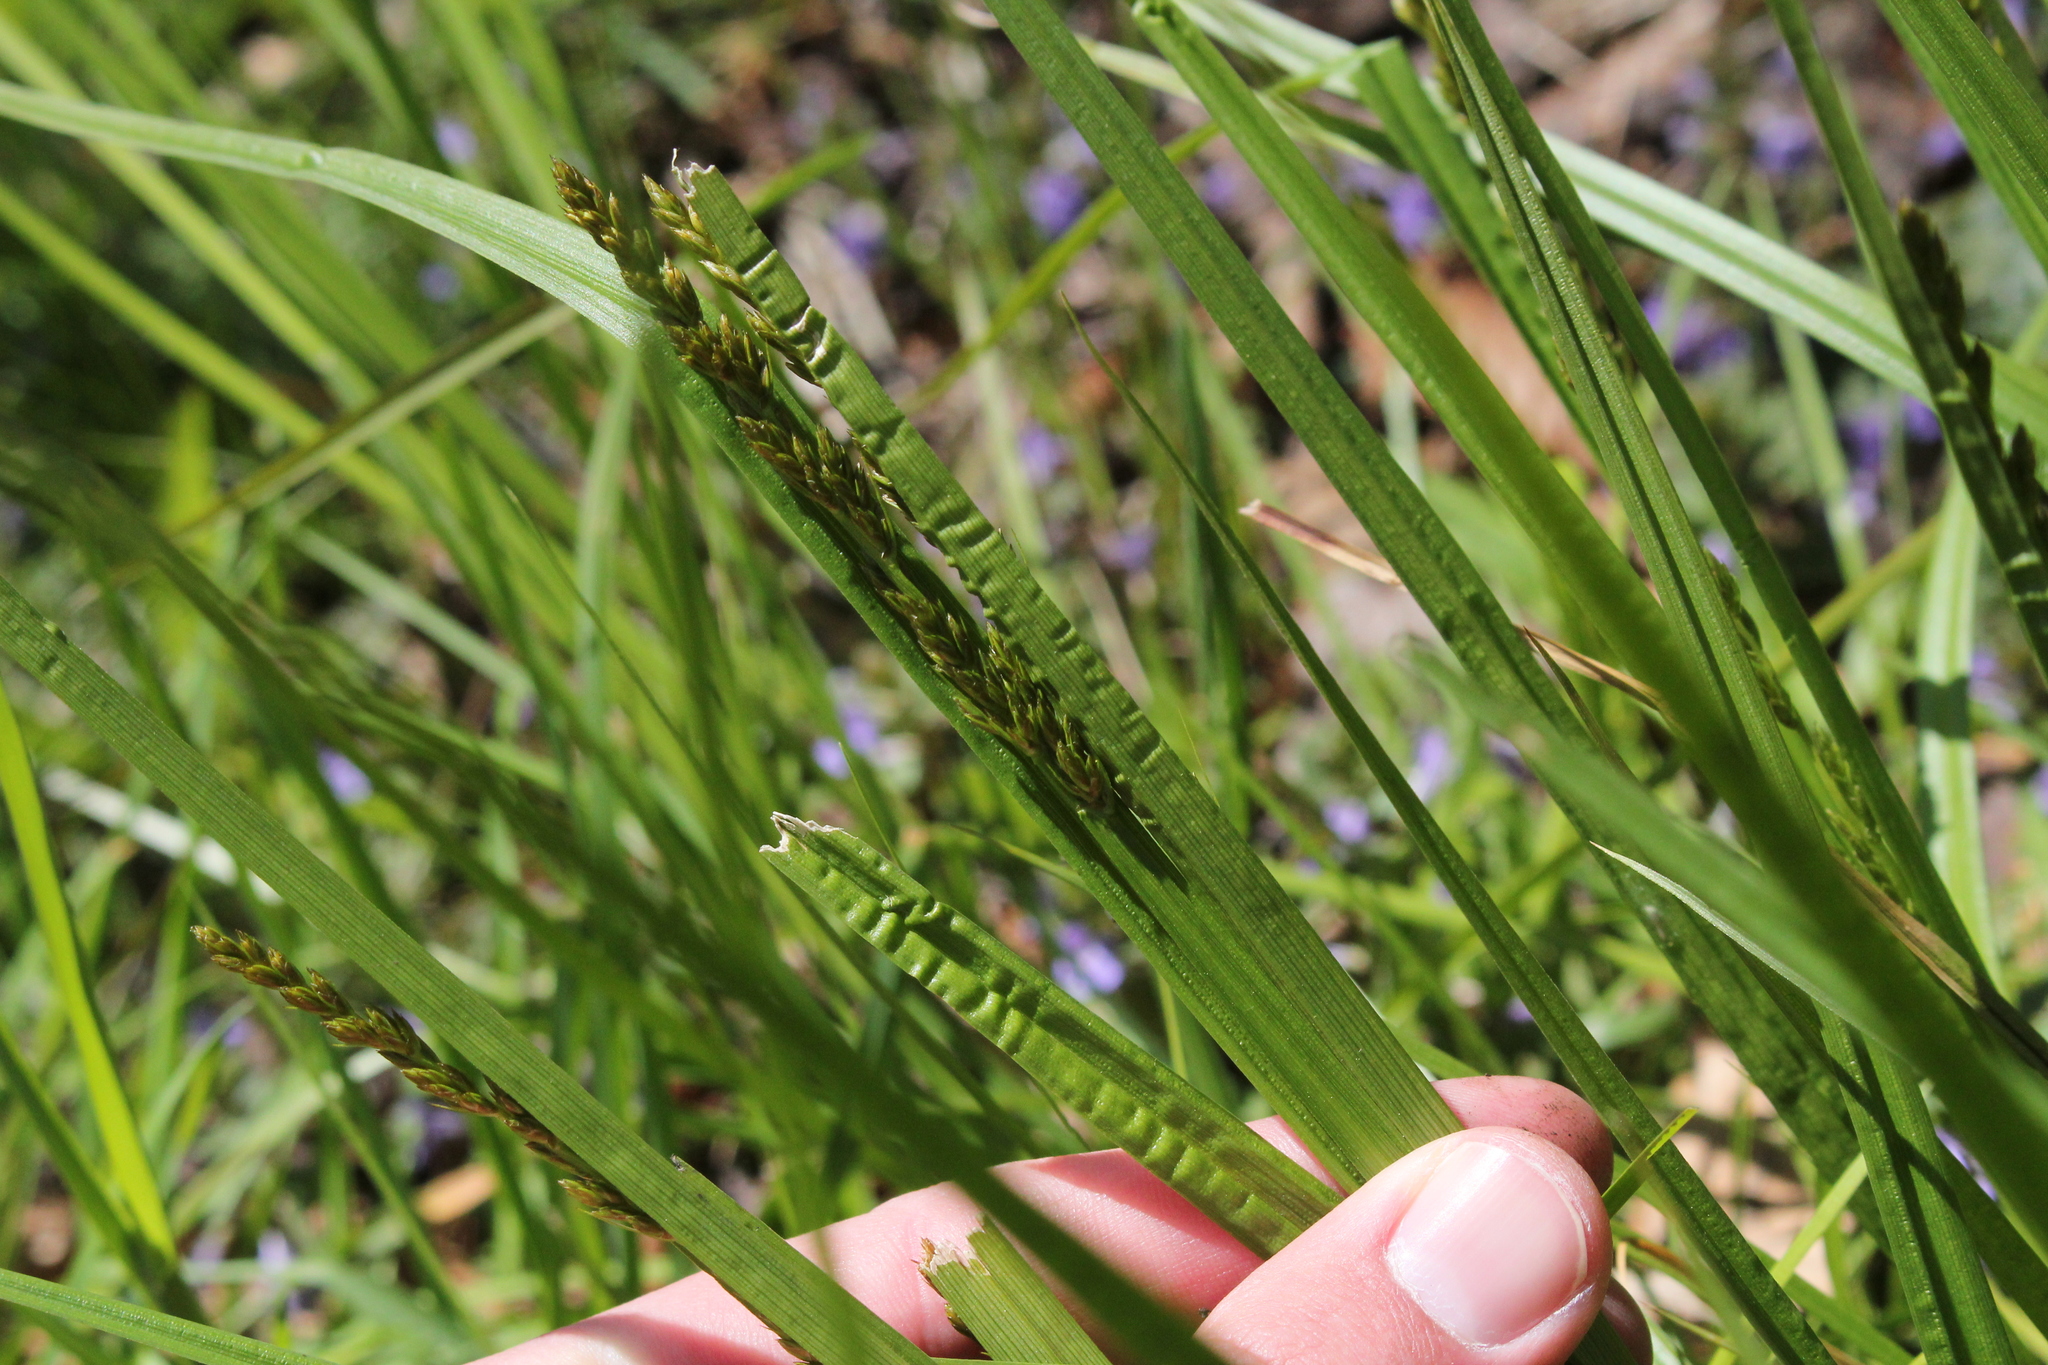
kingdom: Plantae
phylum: Tracheophyta
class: Liliopsida
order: Poales
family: Cyperaceae
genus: Carex
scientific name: Carex stipata
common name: Awl-fruited sedge
